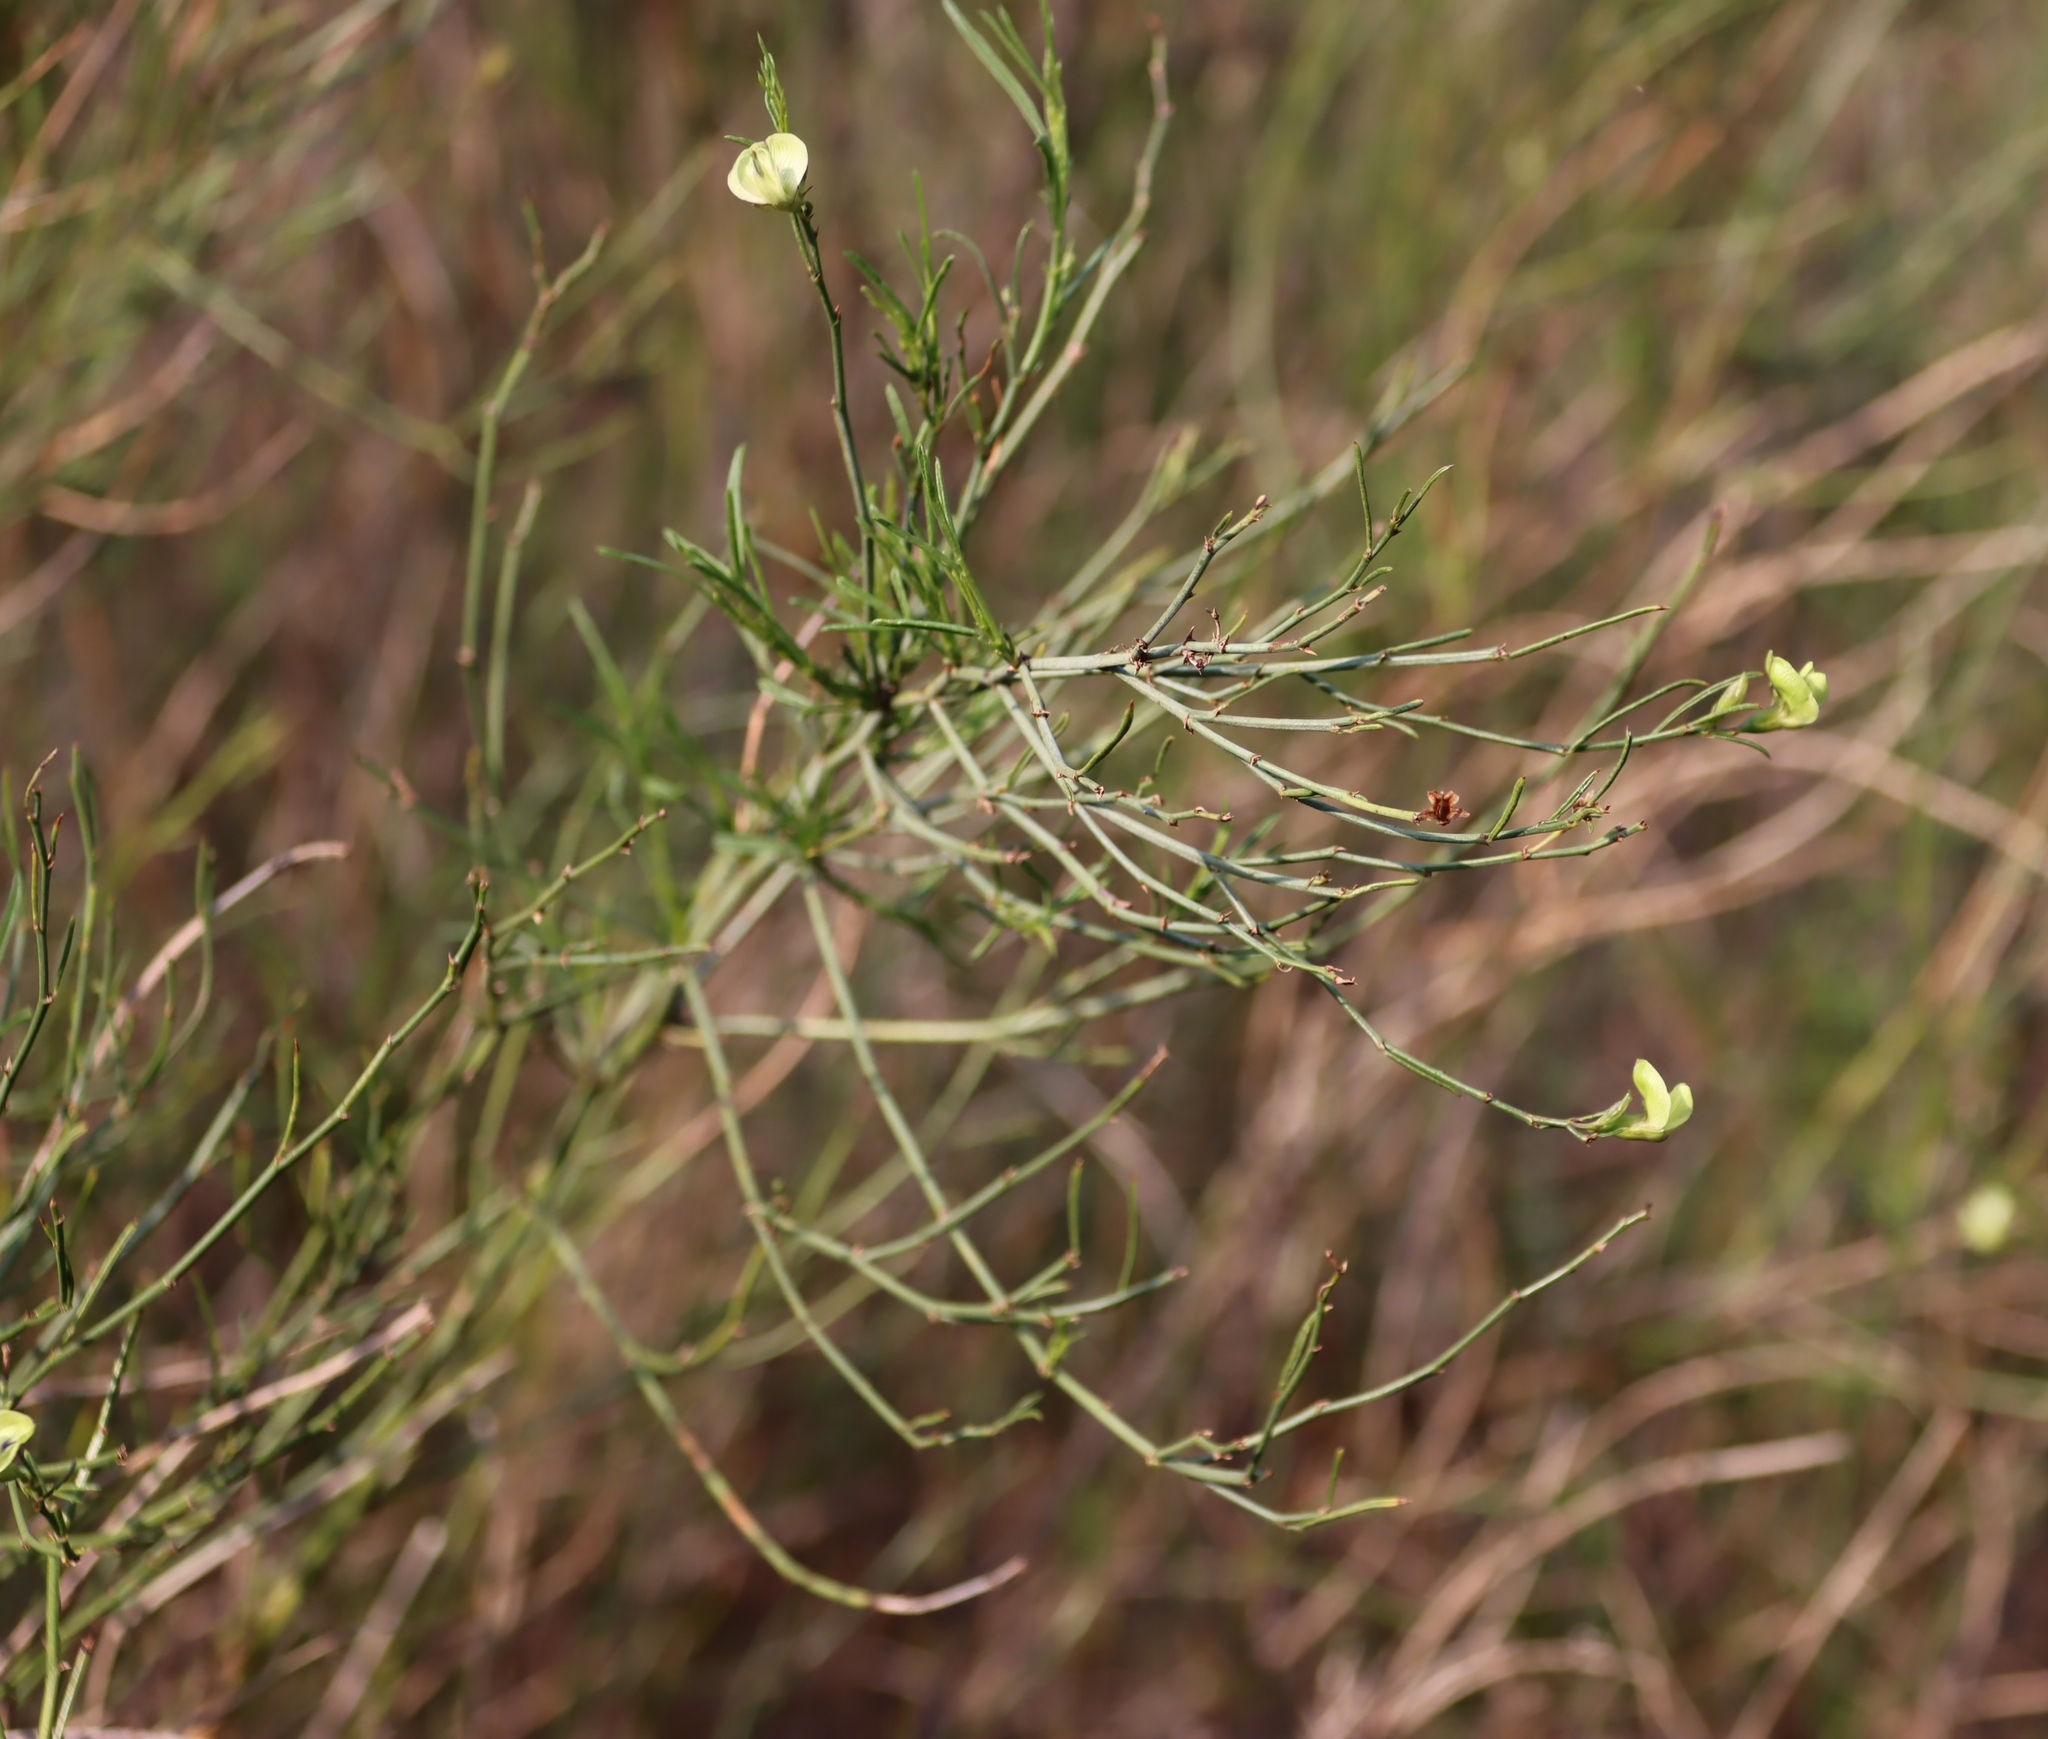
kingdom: Plantae
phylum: Tracheophyta
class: Magnoliopsida
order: Fabales
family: Fabaceae
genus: Psoralea
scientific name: Psoralea glaucescens
